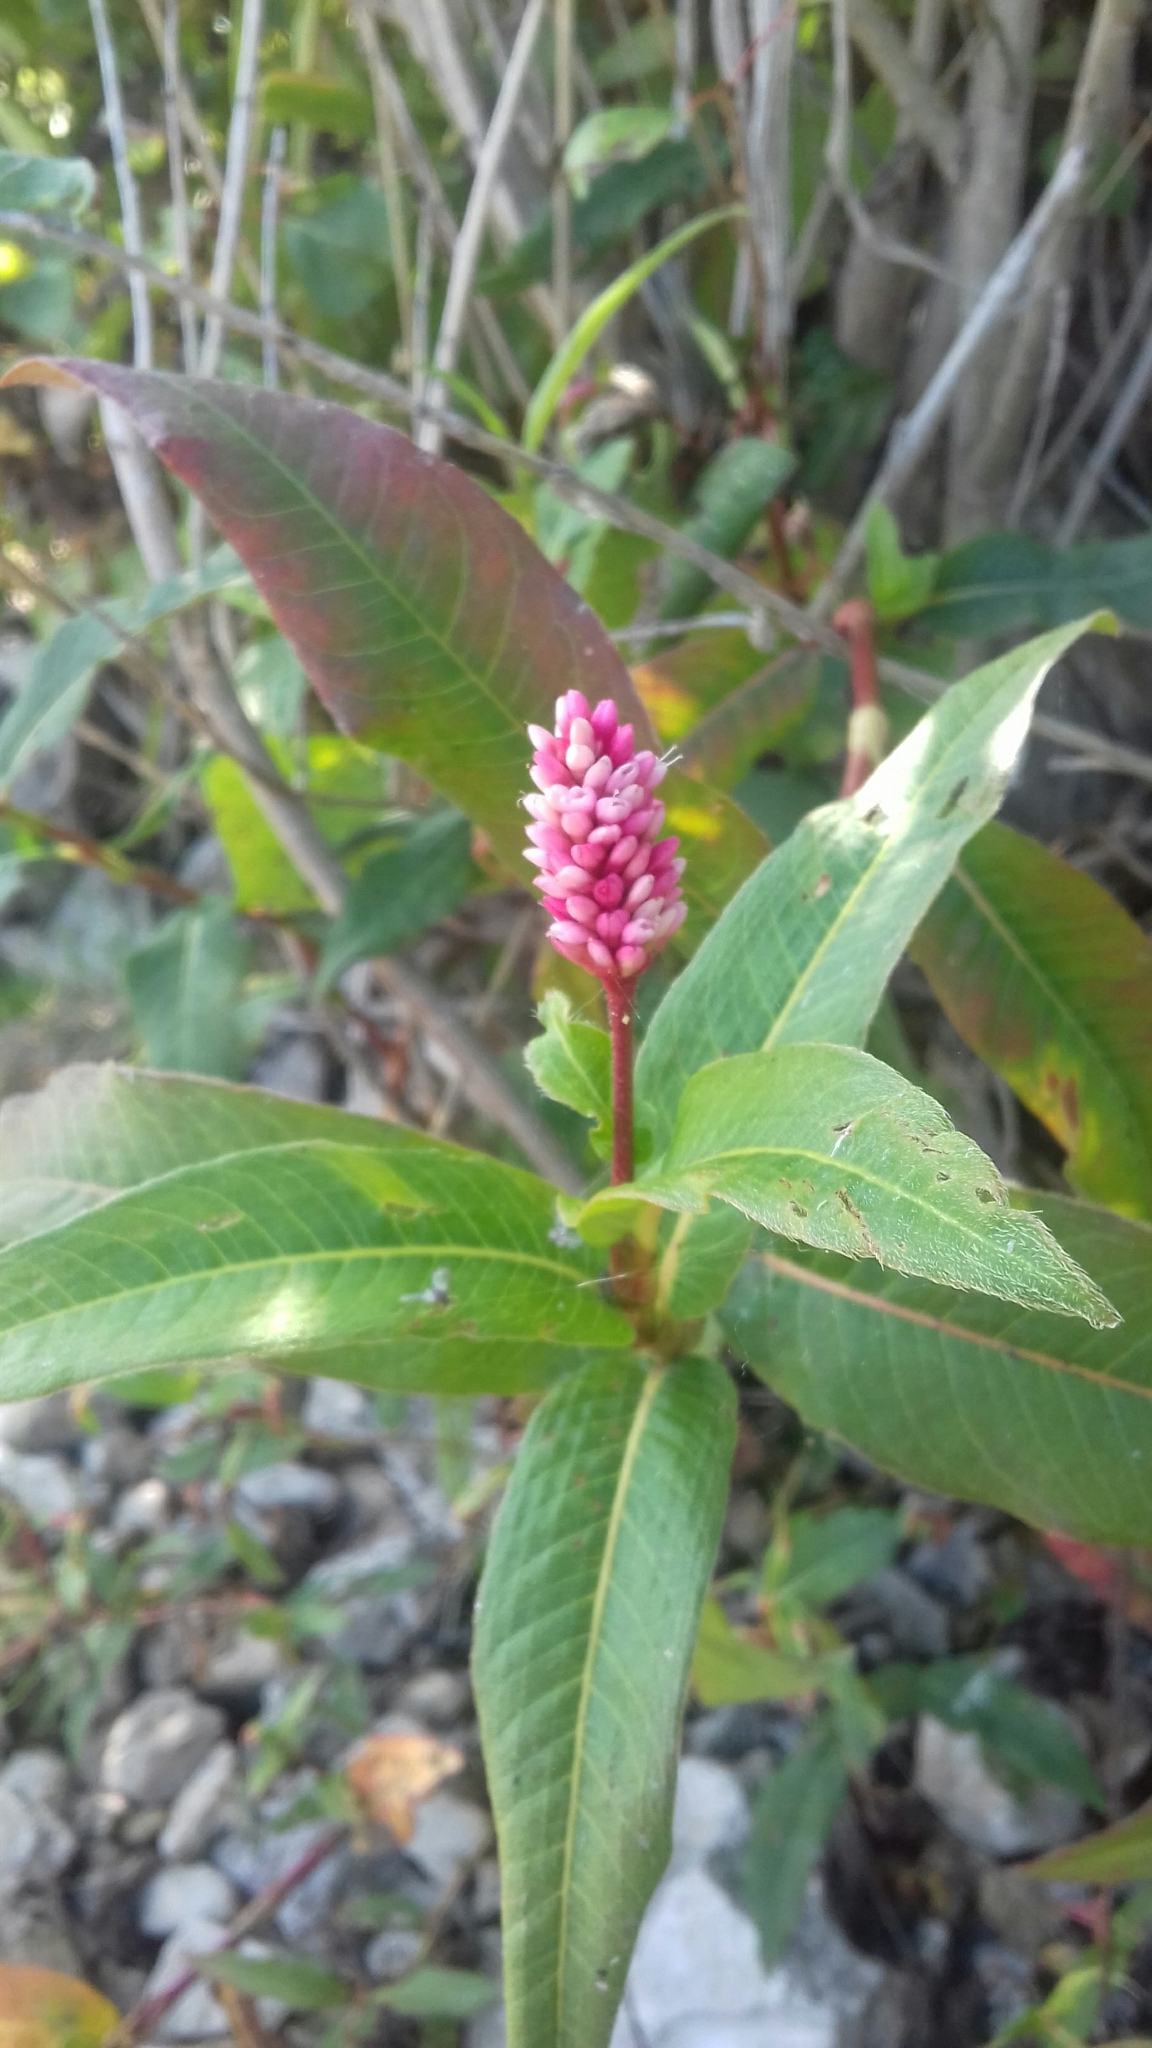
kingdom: Plantae
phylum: Tracheophyta
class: Magnoliopsida
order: Caryophyllales
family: Polygonaceae
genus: Persicaria
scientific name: Persicaria amphibia
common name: Amphibious bistort
